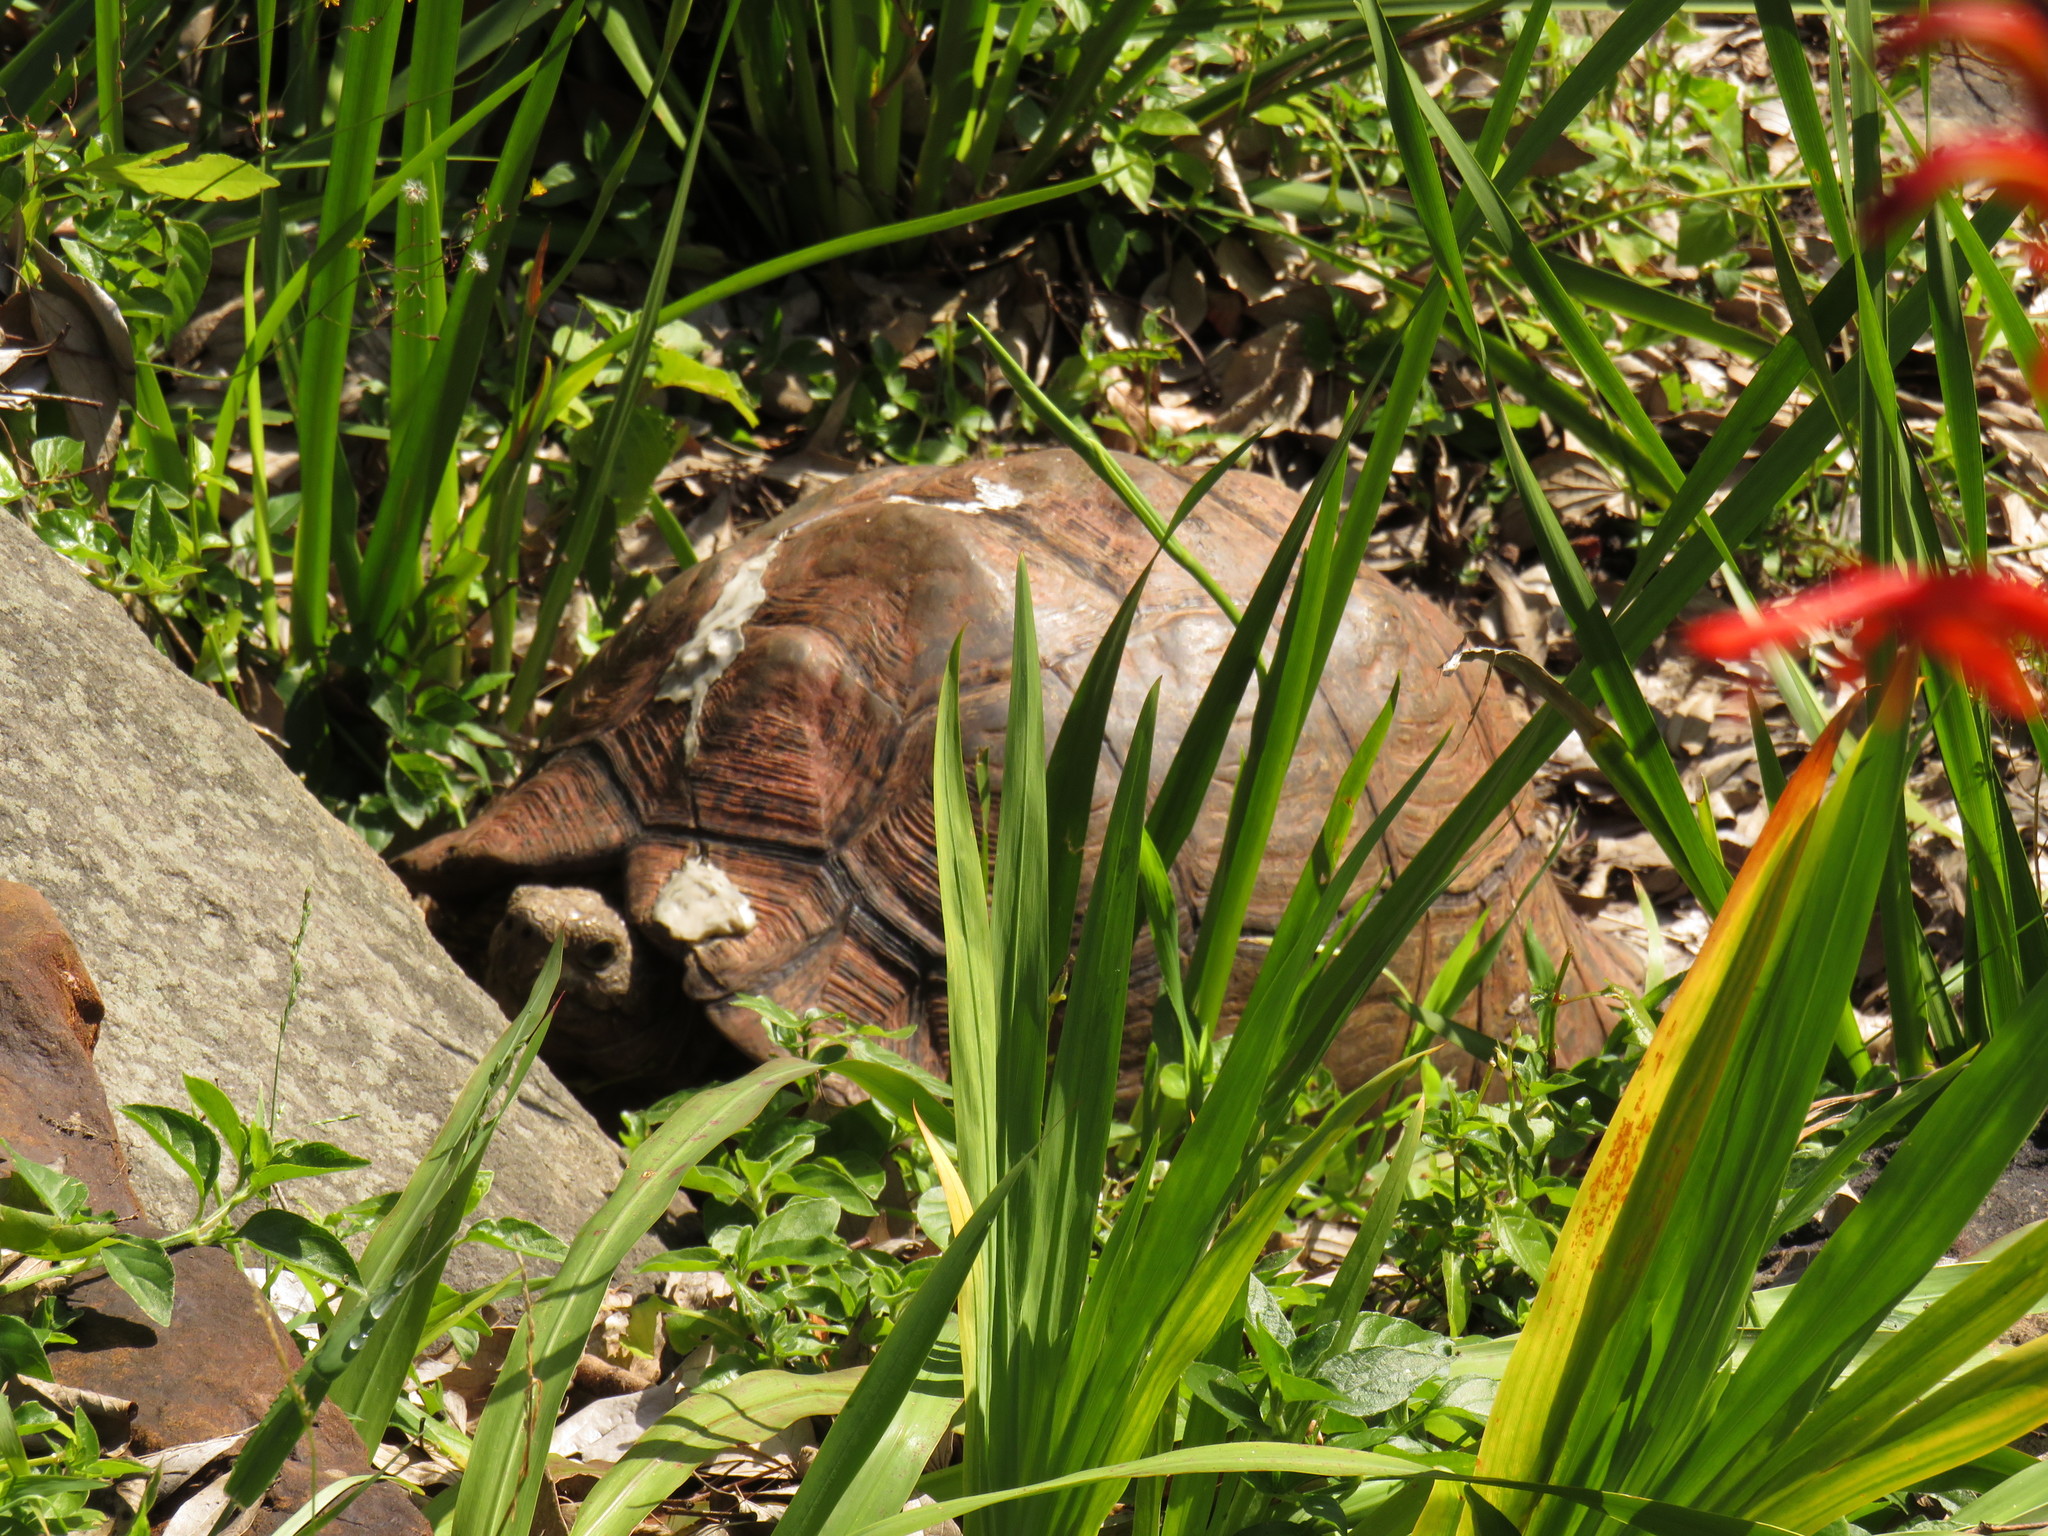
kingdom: Animalia
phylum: Chordata
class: Testudines
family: Testudinidae
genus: Stigmochelys
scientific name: Stigmochelys pardalis
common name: Leopard tortoise
